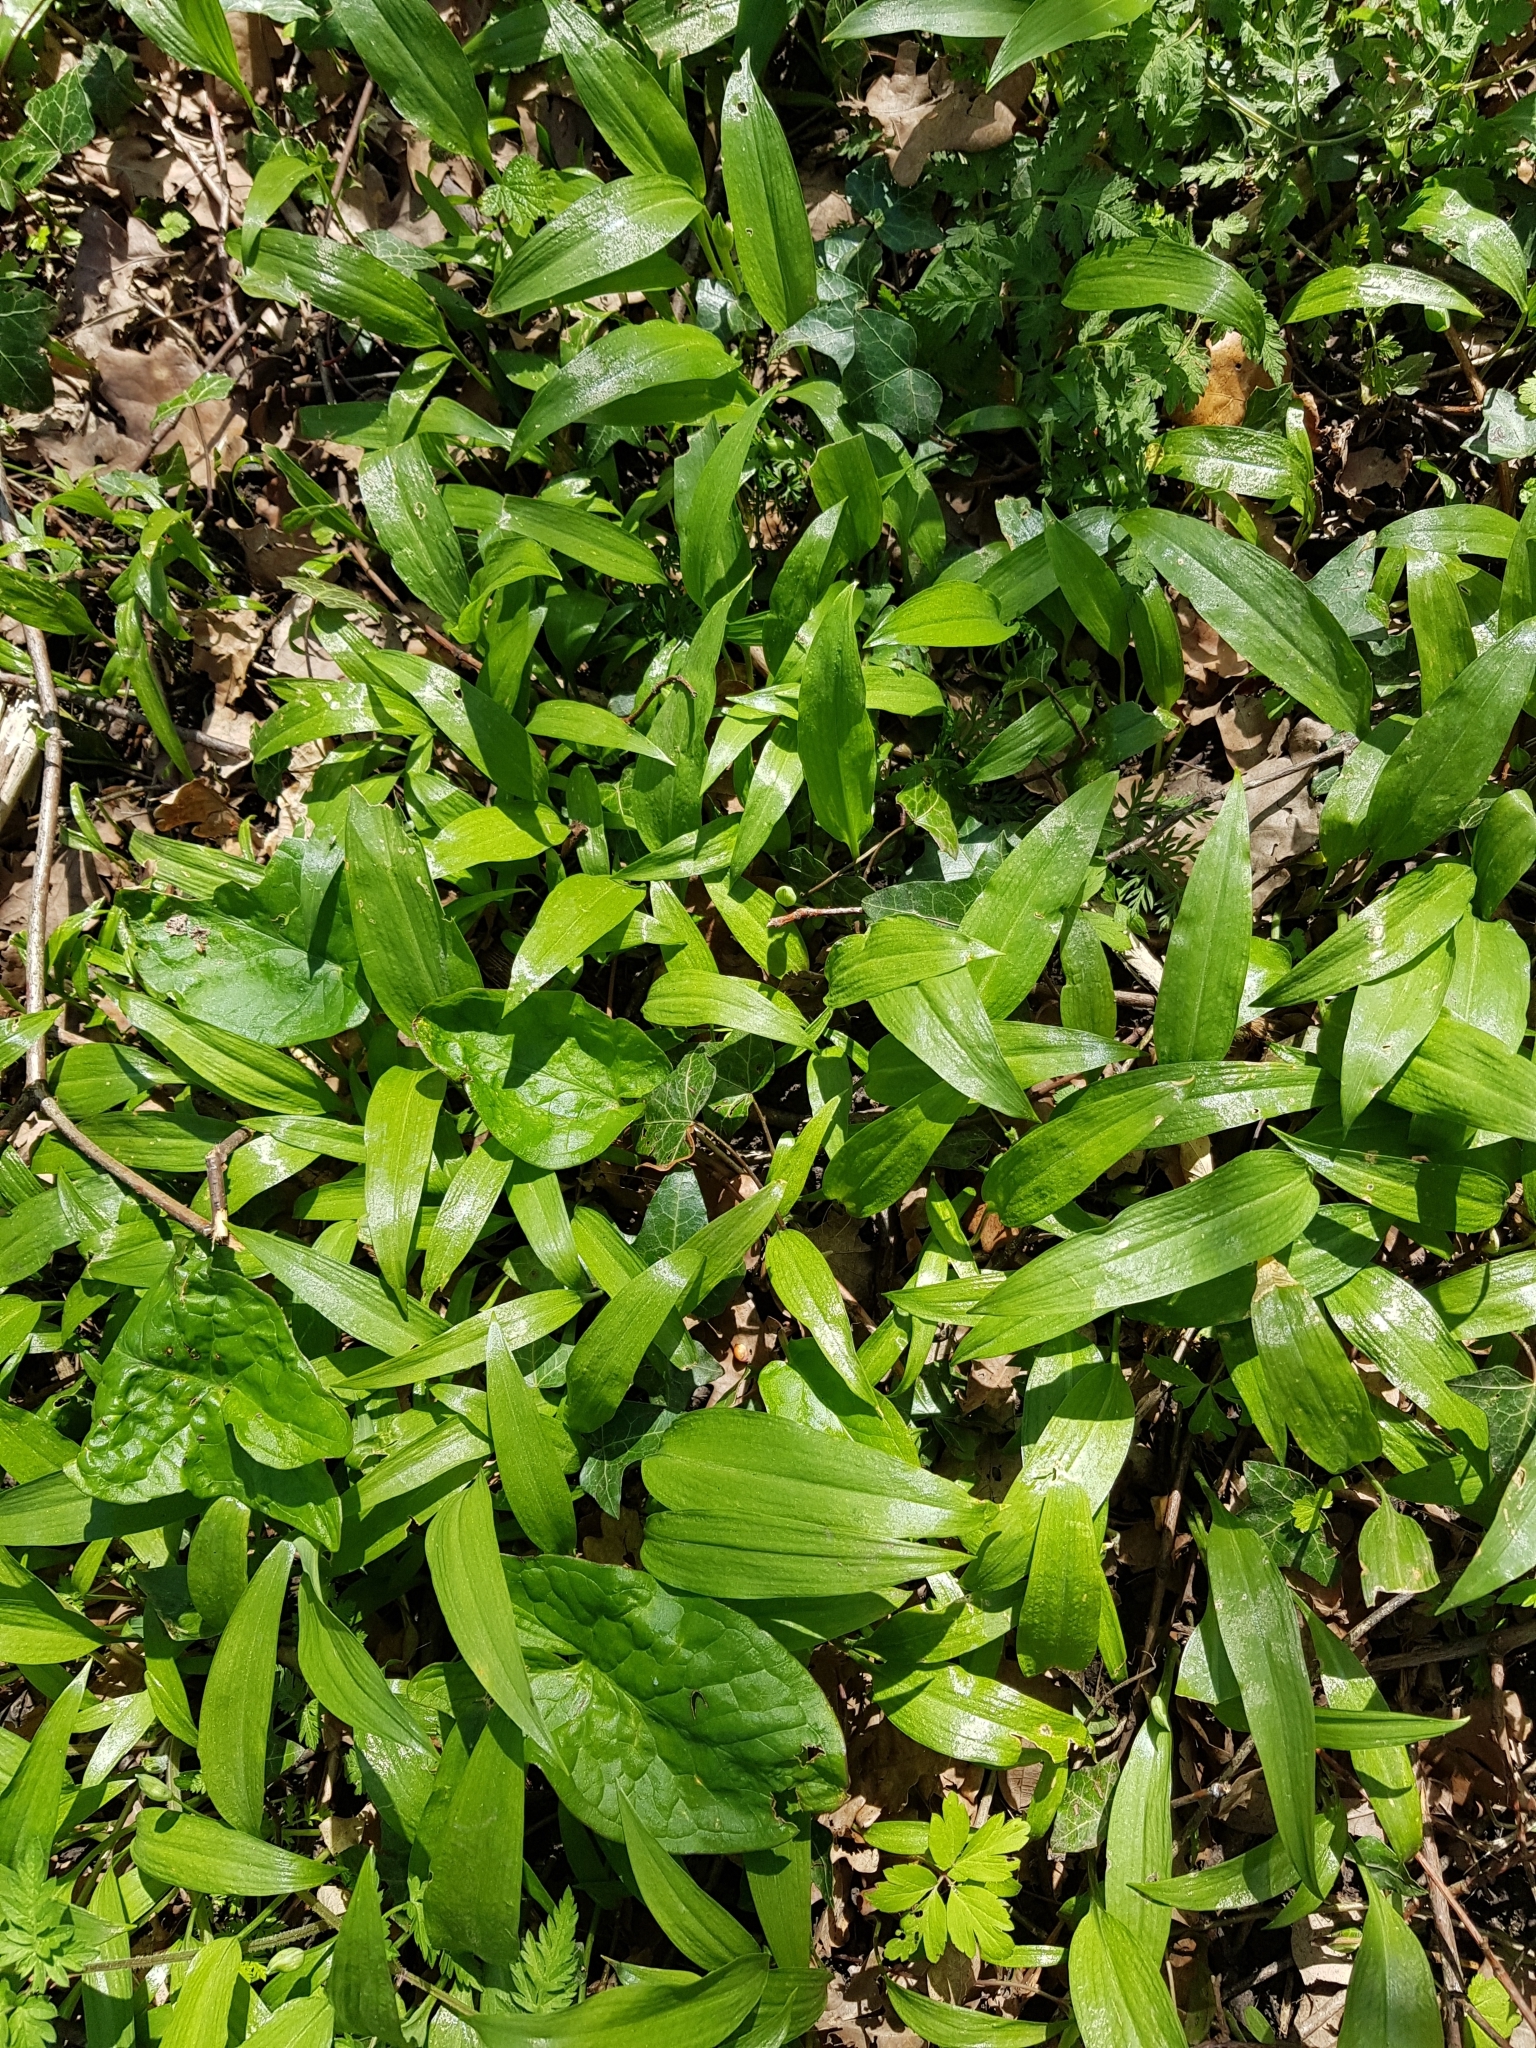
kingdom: Plantae
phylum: Tracheophyta
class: Liliopsida
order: Asparagales
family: Amaryllidaceae
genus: Allium
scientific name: Allium ursinum
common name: Ramsons
